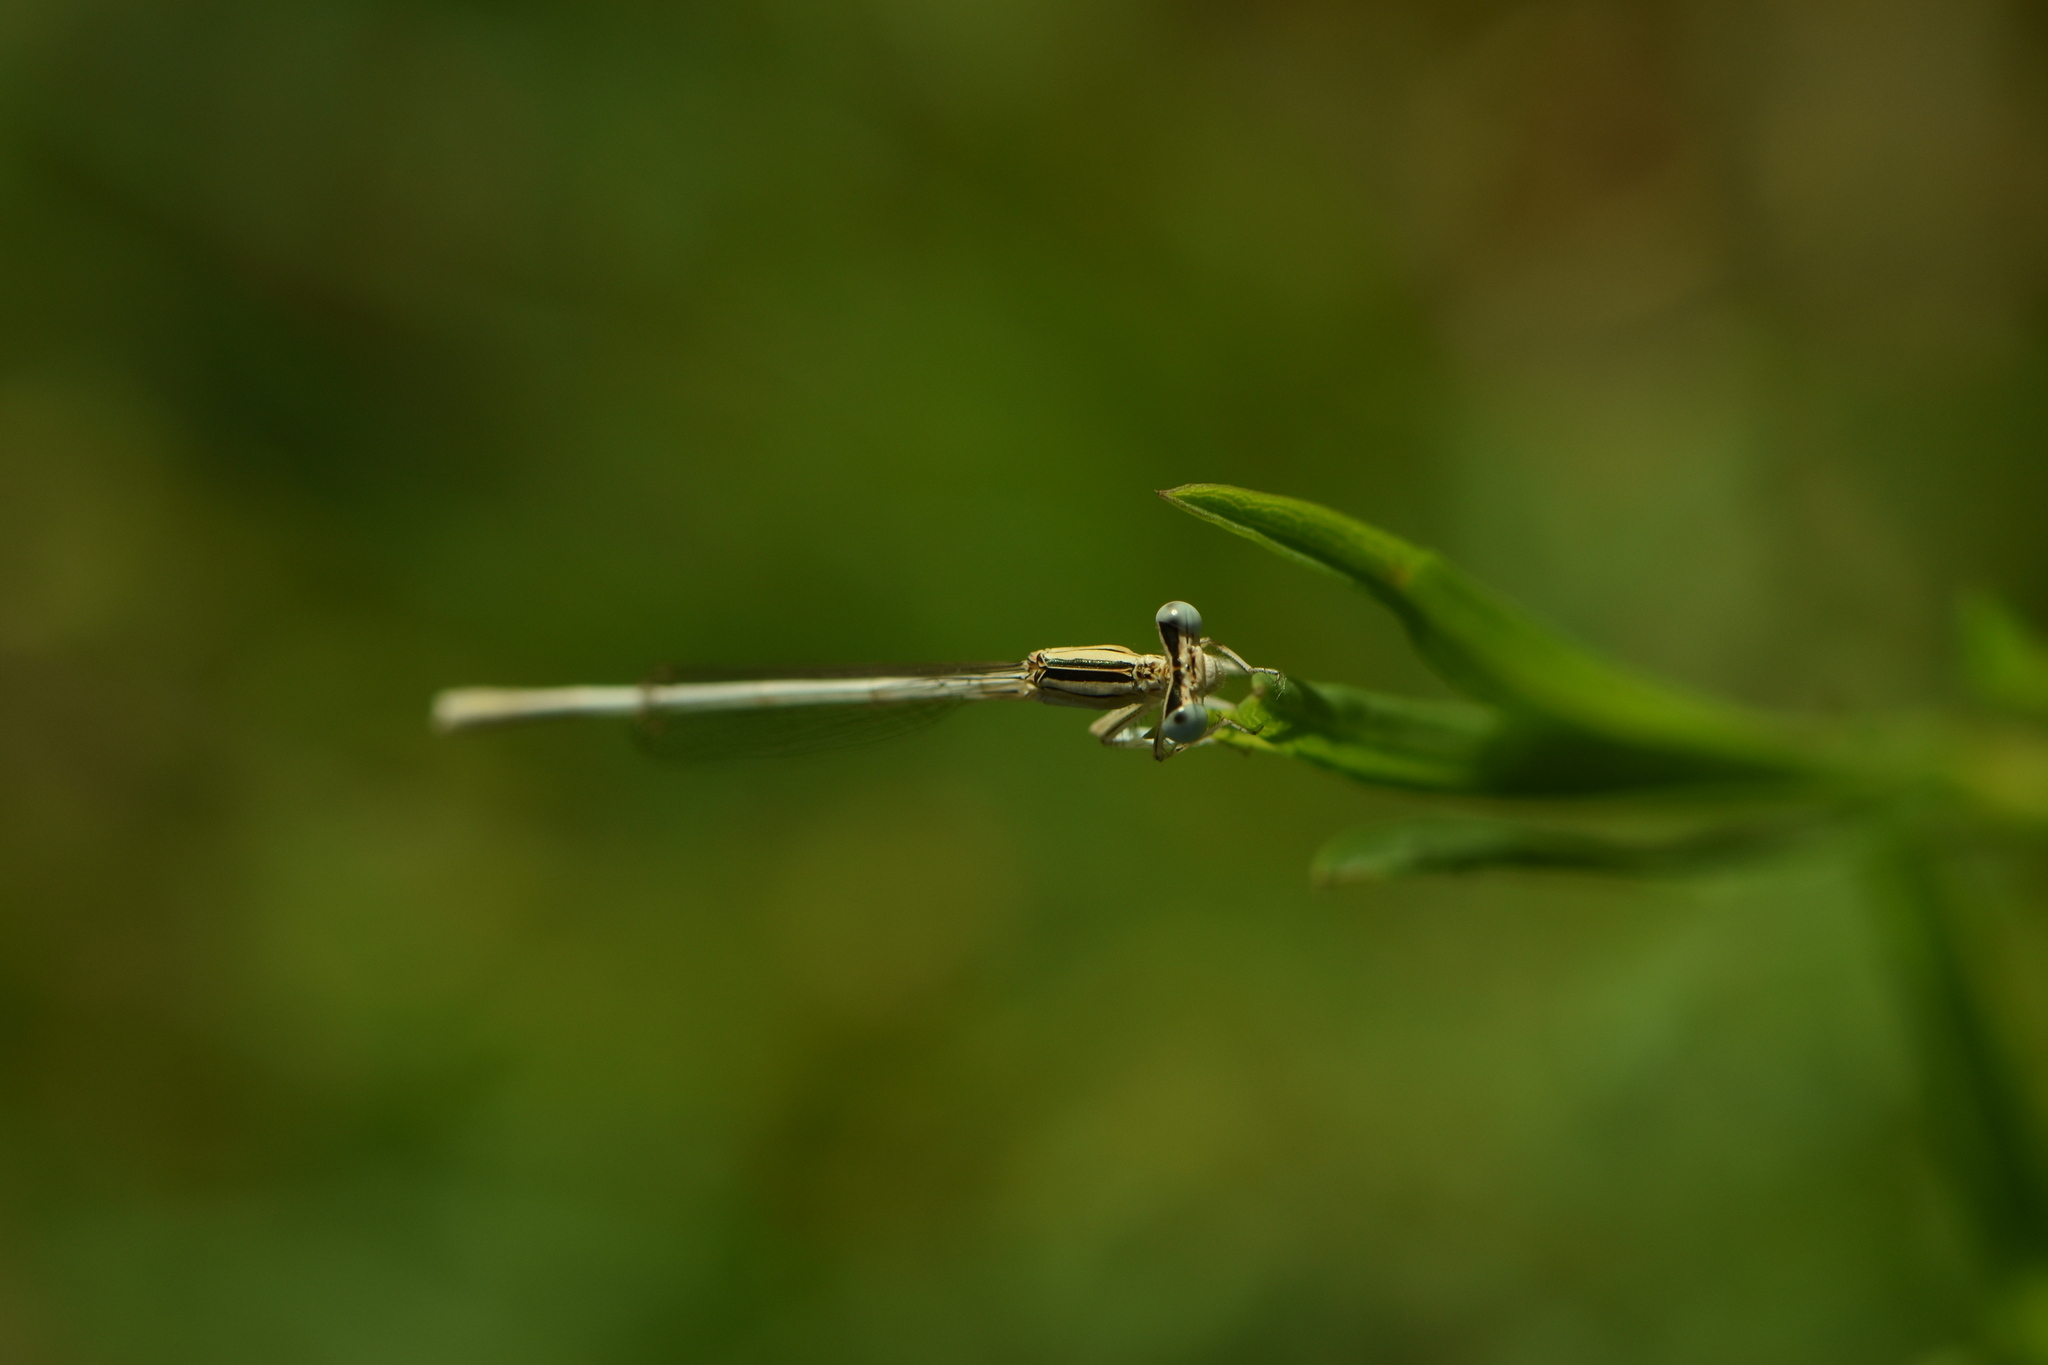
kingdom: Animalia
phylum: Arthropoda
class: Insecta
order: Odonata
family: Platycnemididae
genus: Platycnemis
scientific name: Platycnemis latipes
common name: White featherleg
